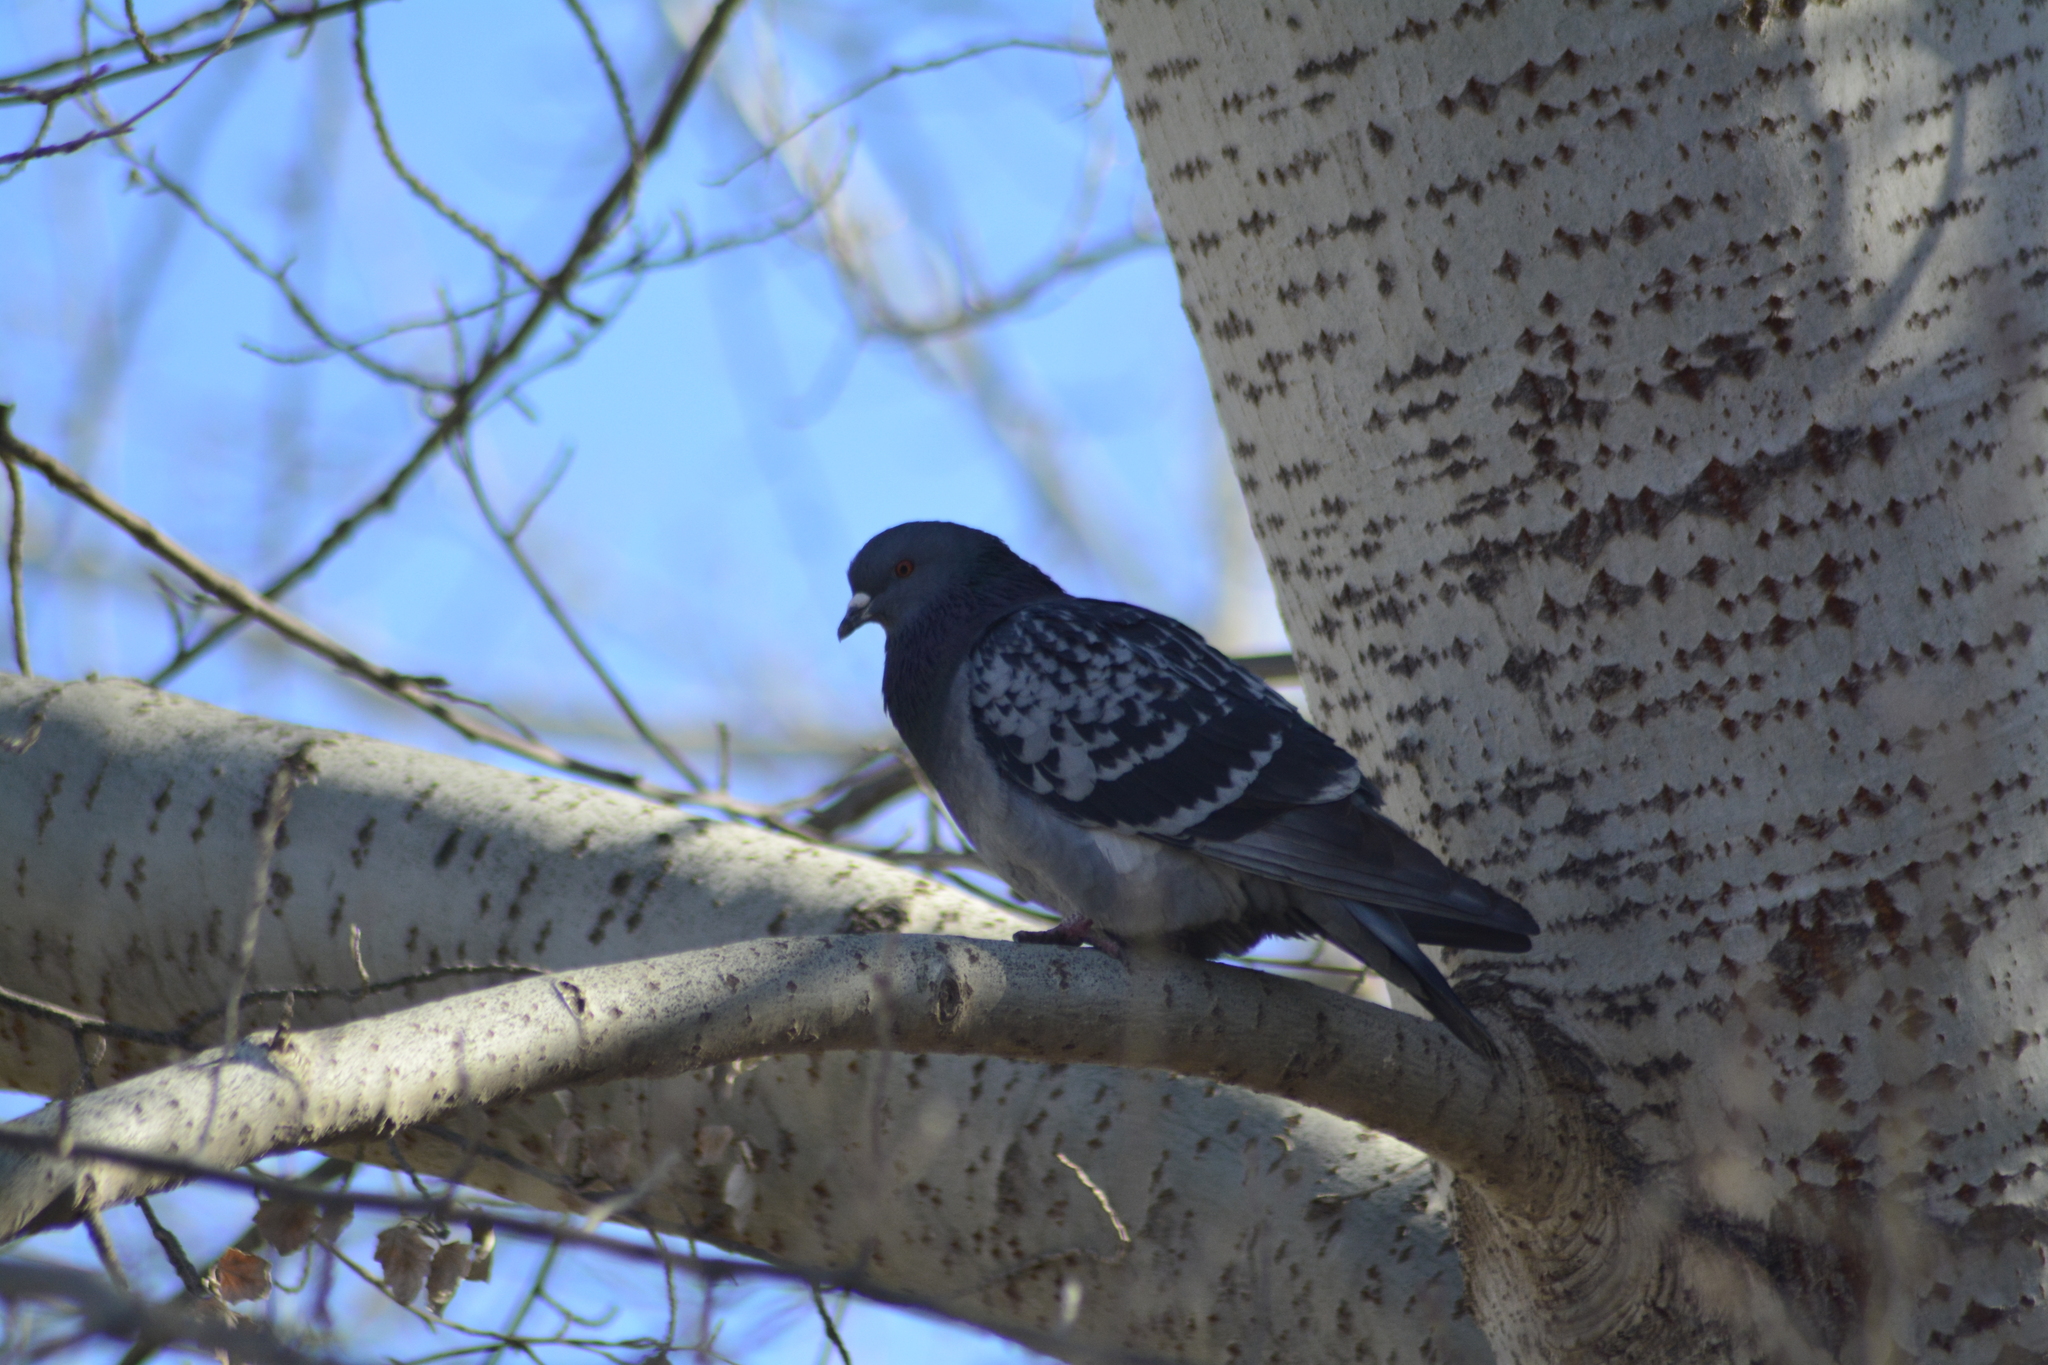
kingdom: Animalia
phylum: Chordata
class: Aves
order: Columbiformes
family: Columbidae
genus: Columba
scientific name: Columba livia
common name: Rock pigeon
